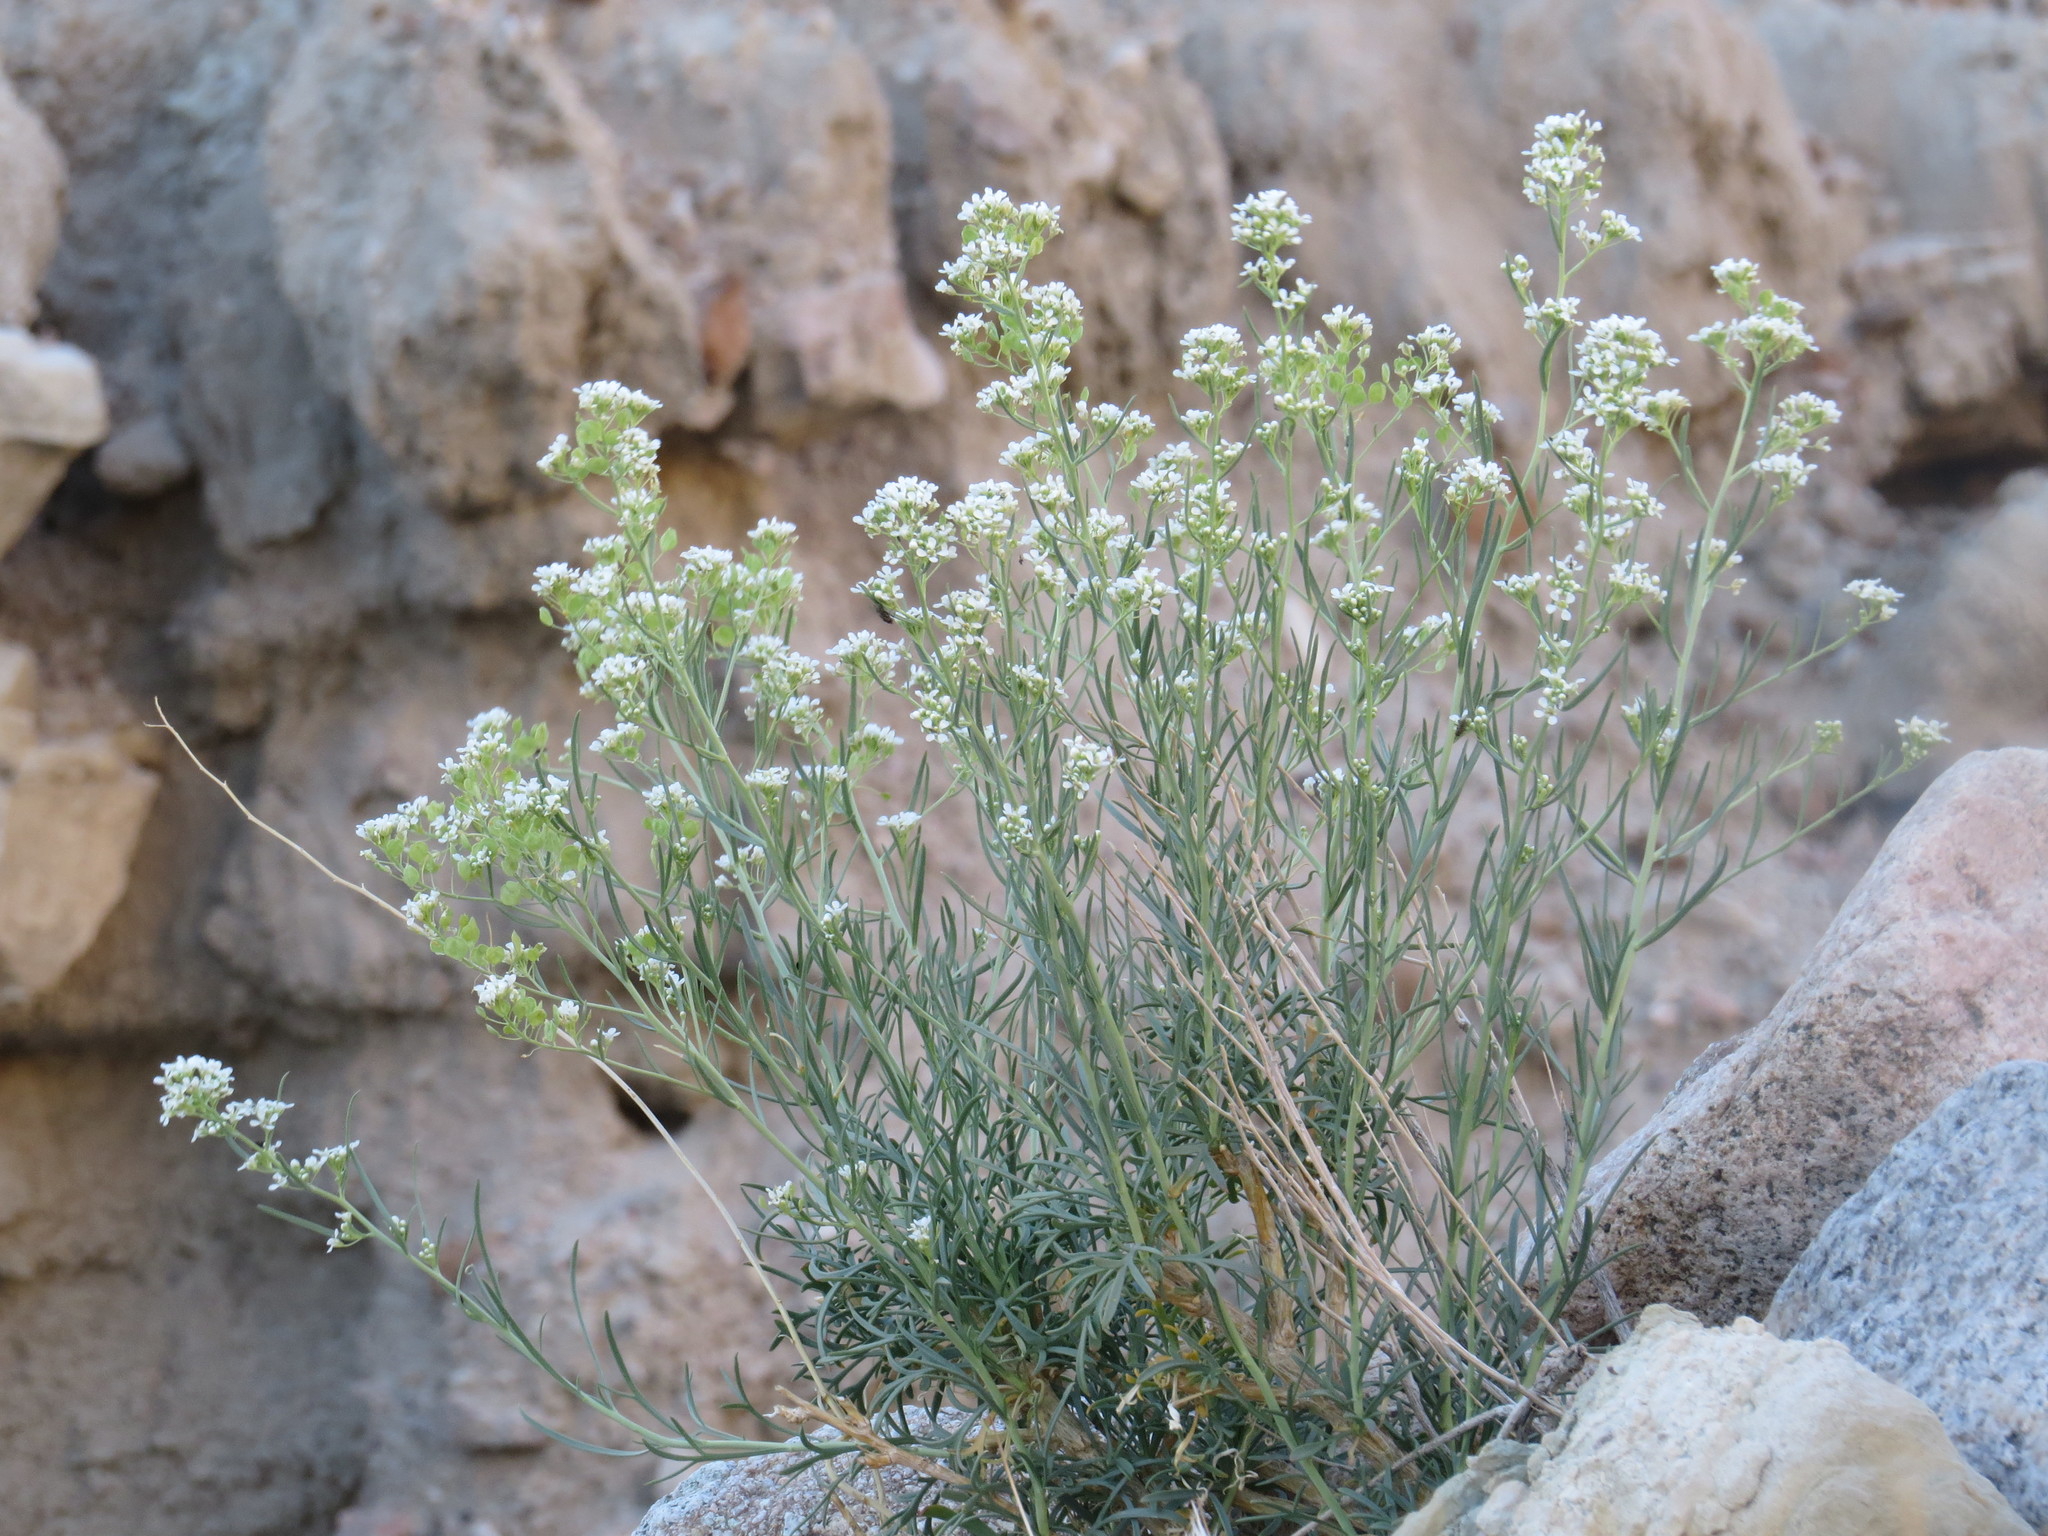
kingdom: Plantae
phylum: Tracheophyta
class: Magnoliopsida
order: Brassicales
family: Brassicaceae
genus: Lepidium
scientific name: Lepidium fremontii
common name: Fremont's pepperwort
